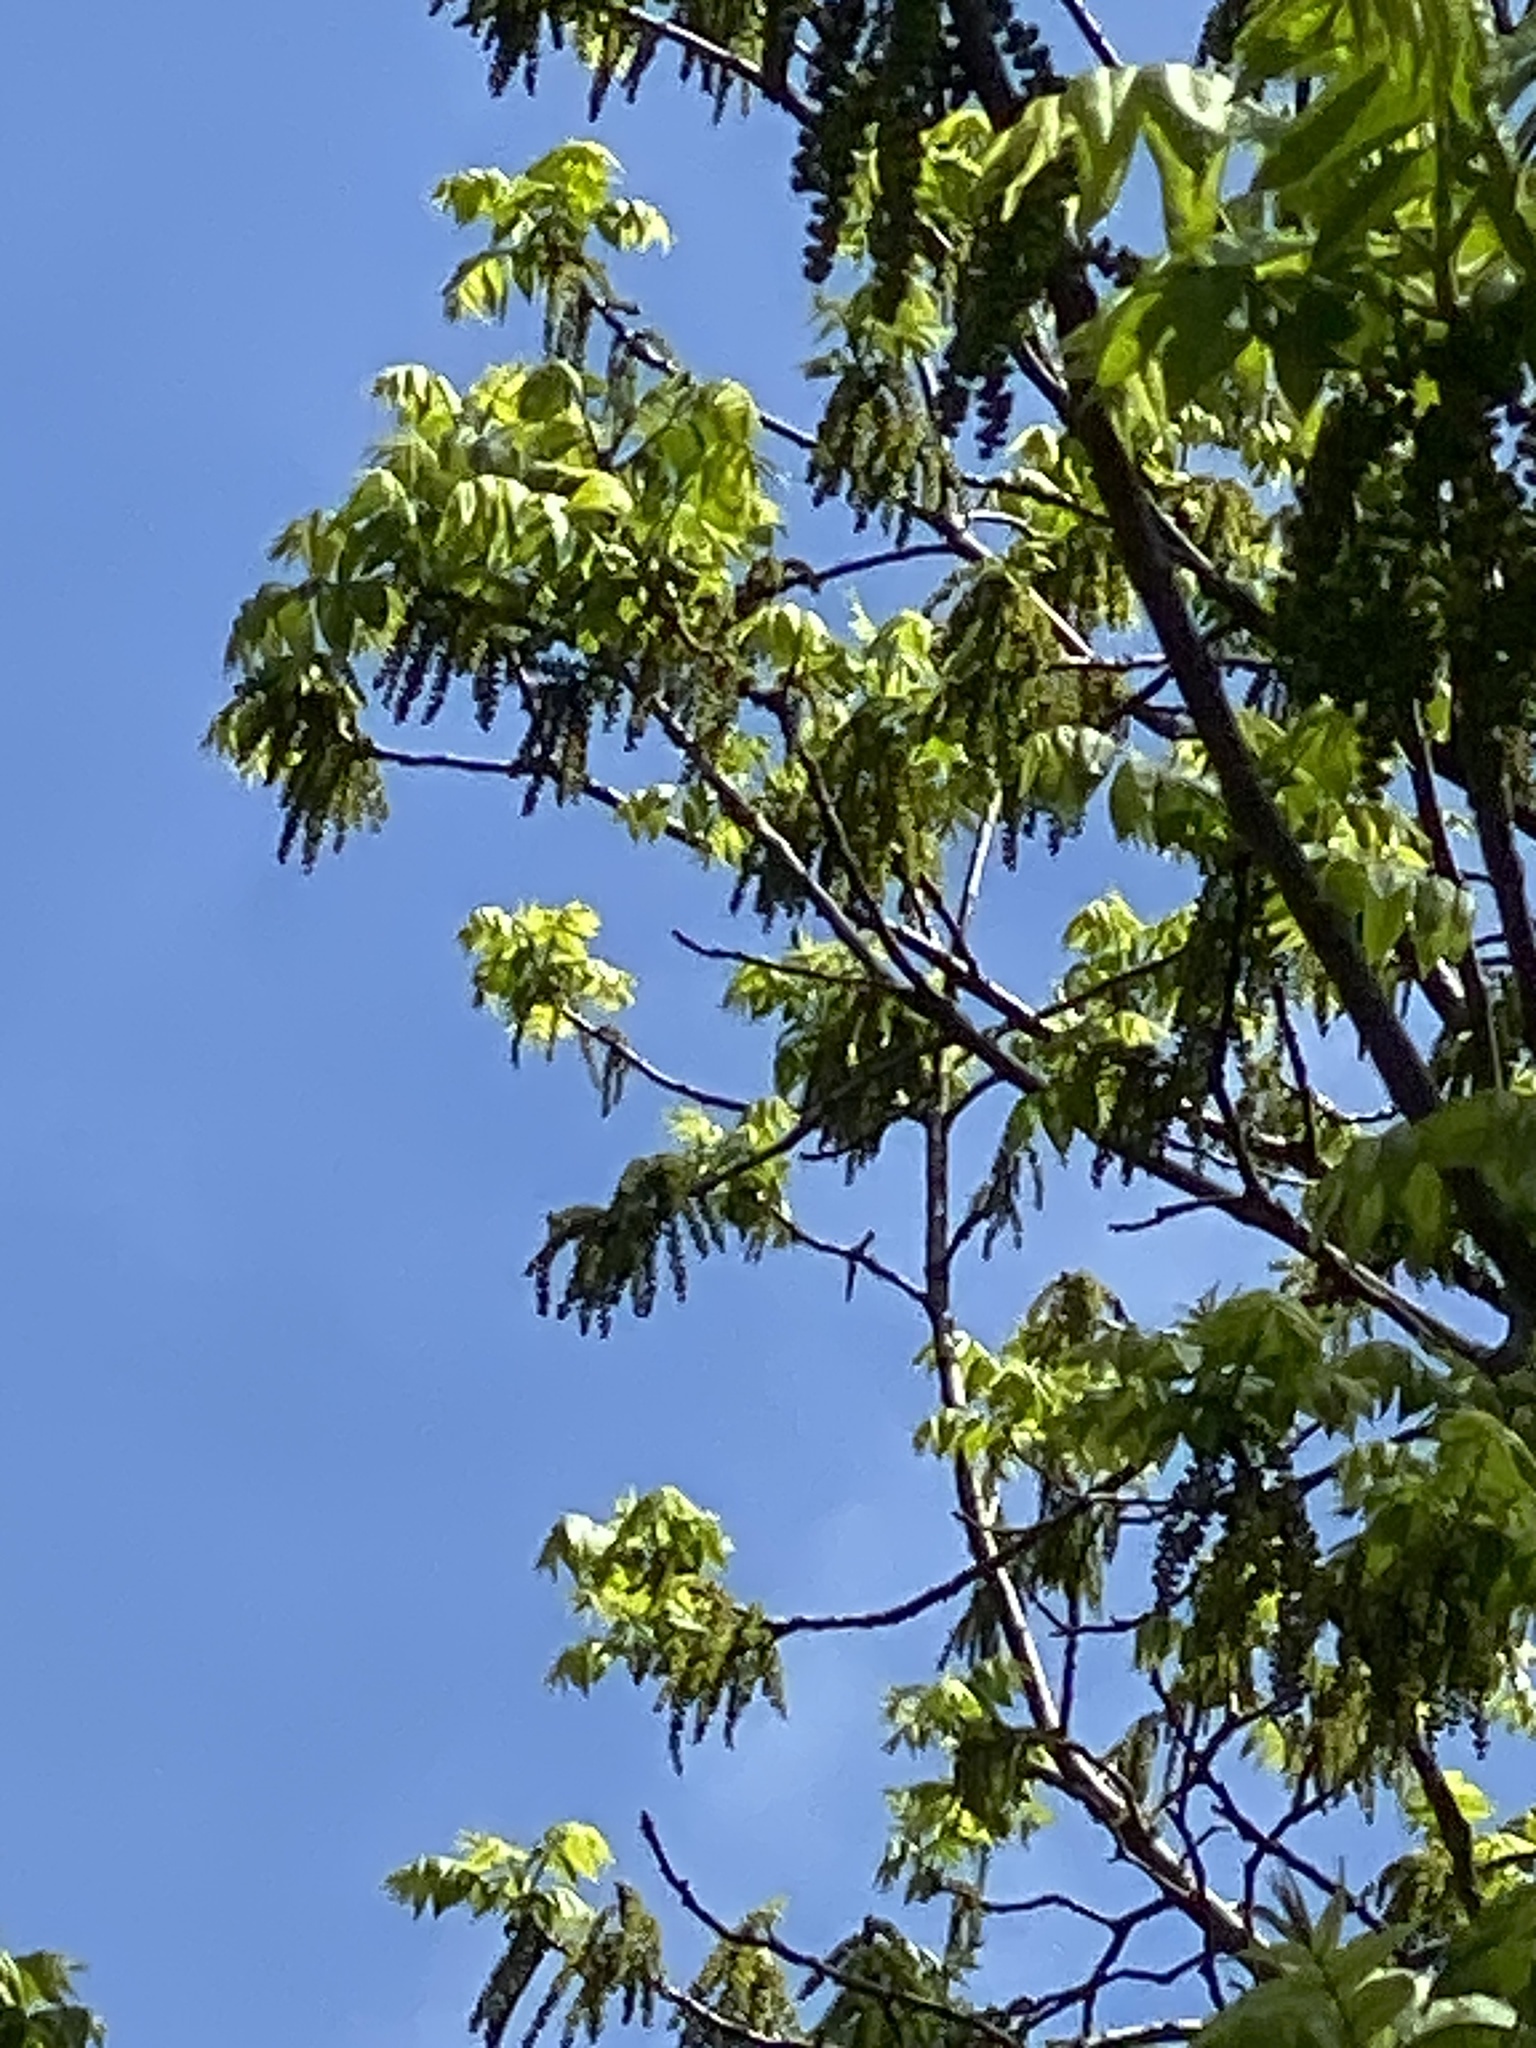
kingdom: Plantae
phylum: Tracheophyta
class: Magnoliopsida
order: Fagales
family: Juglandaceae
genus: Juglans
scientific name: Juglans nigra
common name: Black walnut
